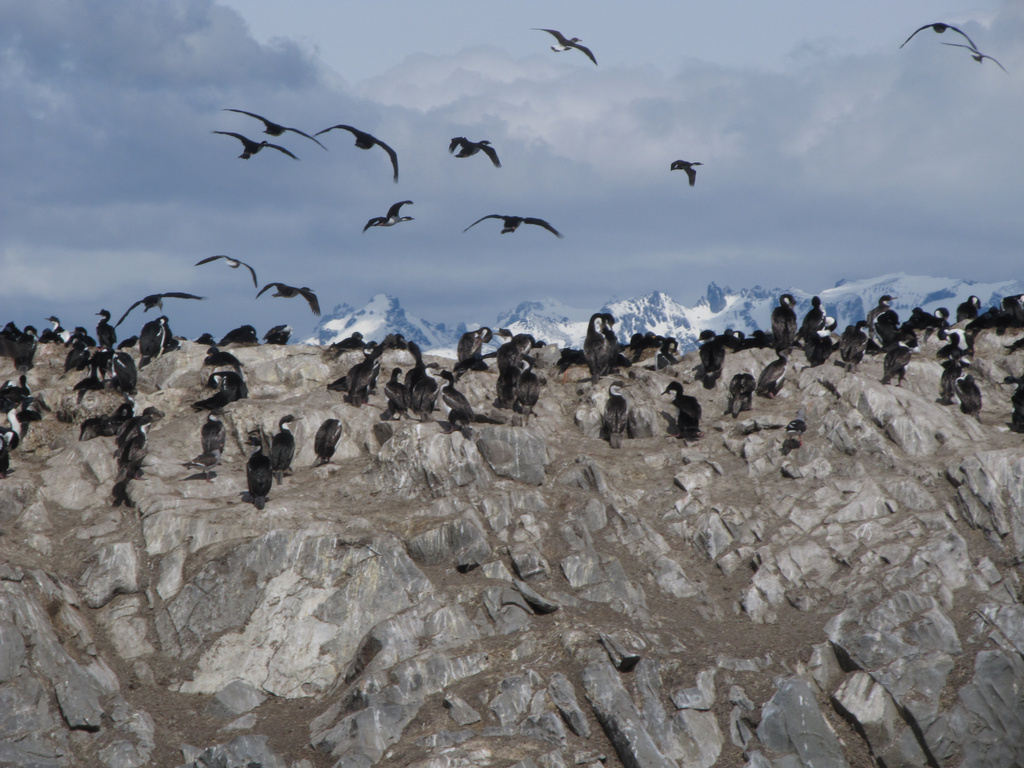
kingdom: Animalia
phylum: Chordata
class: Aves
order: Suliformes
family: Phalacrocoracidae
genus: Leucocarbo
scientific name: Leucocarbo albiventer
